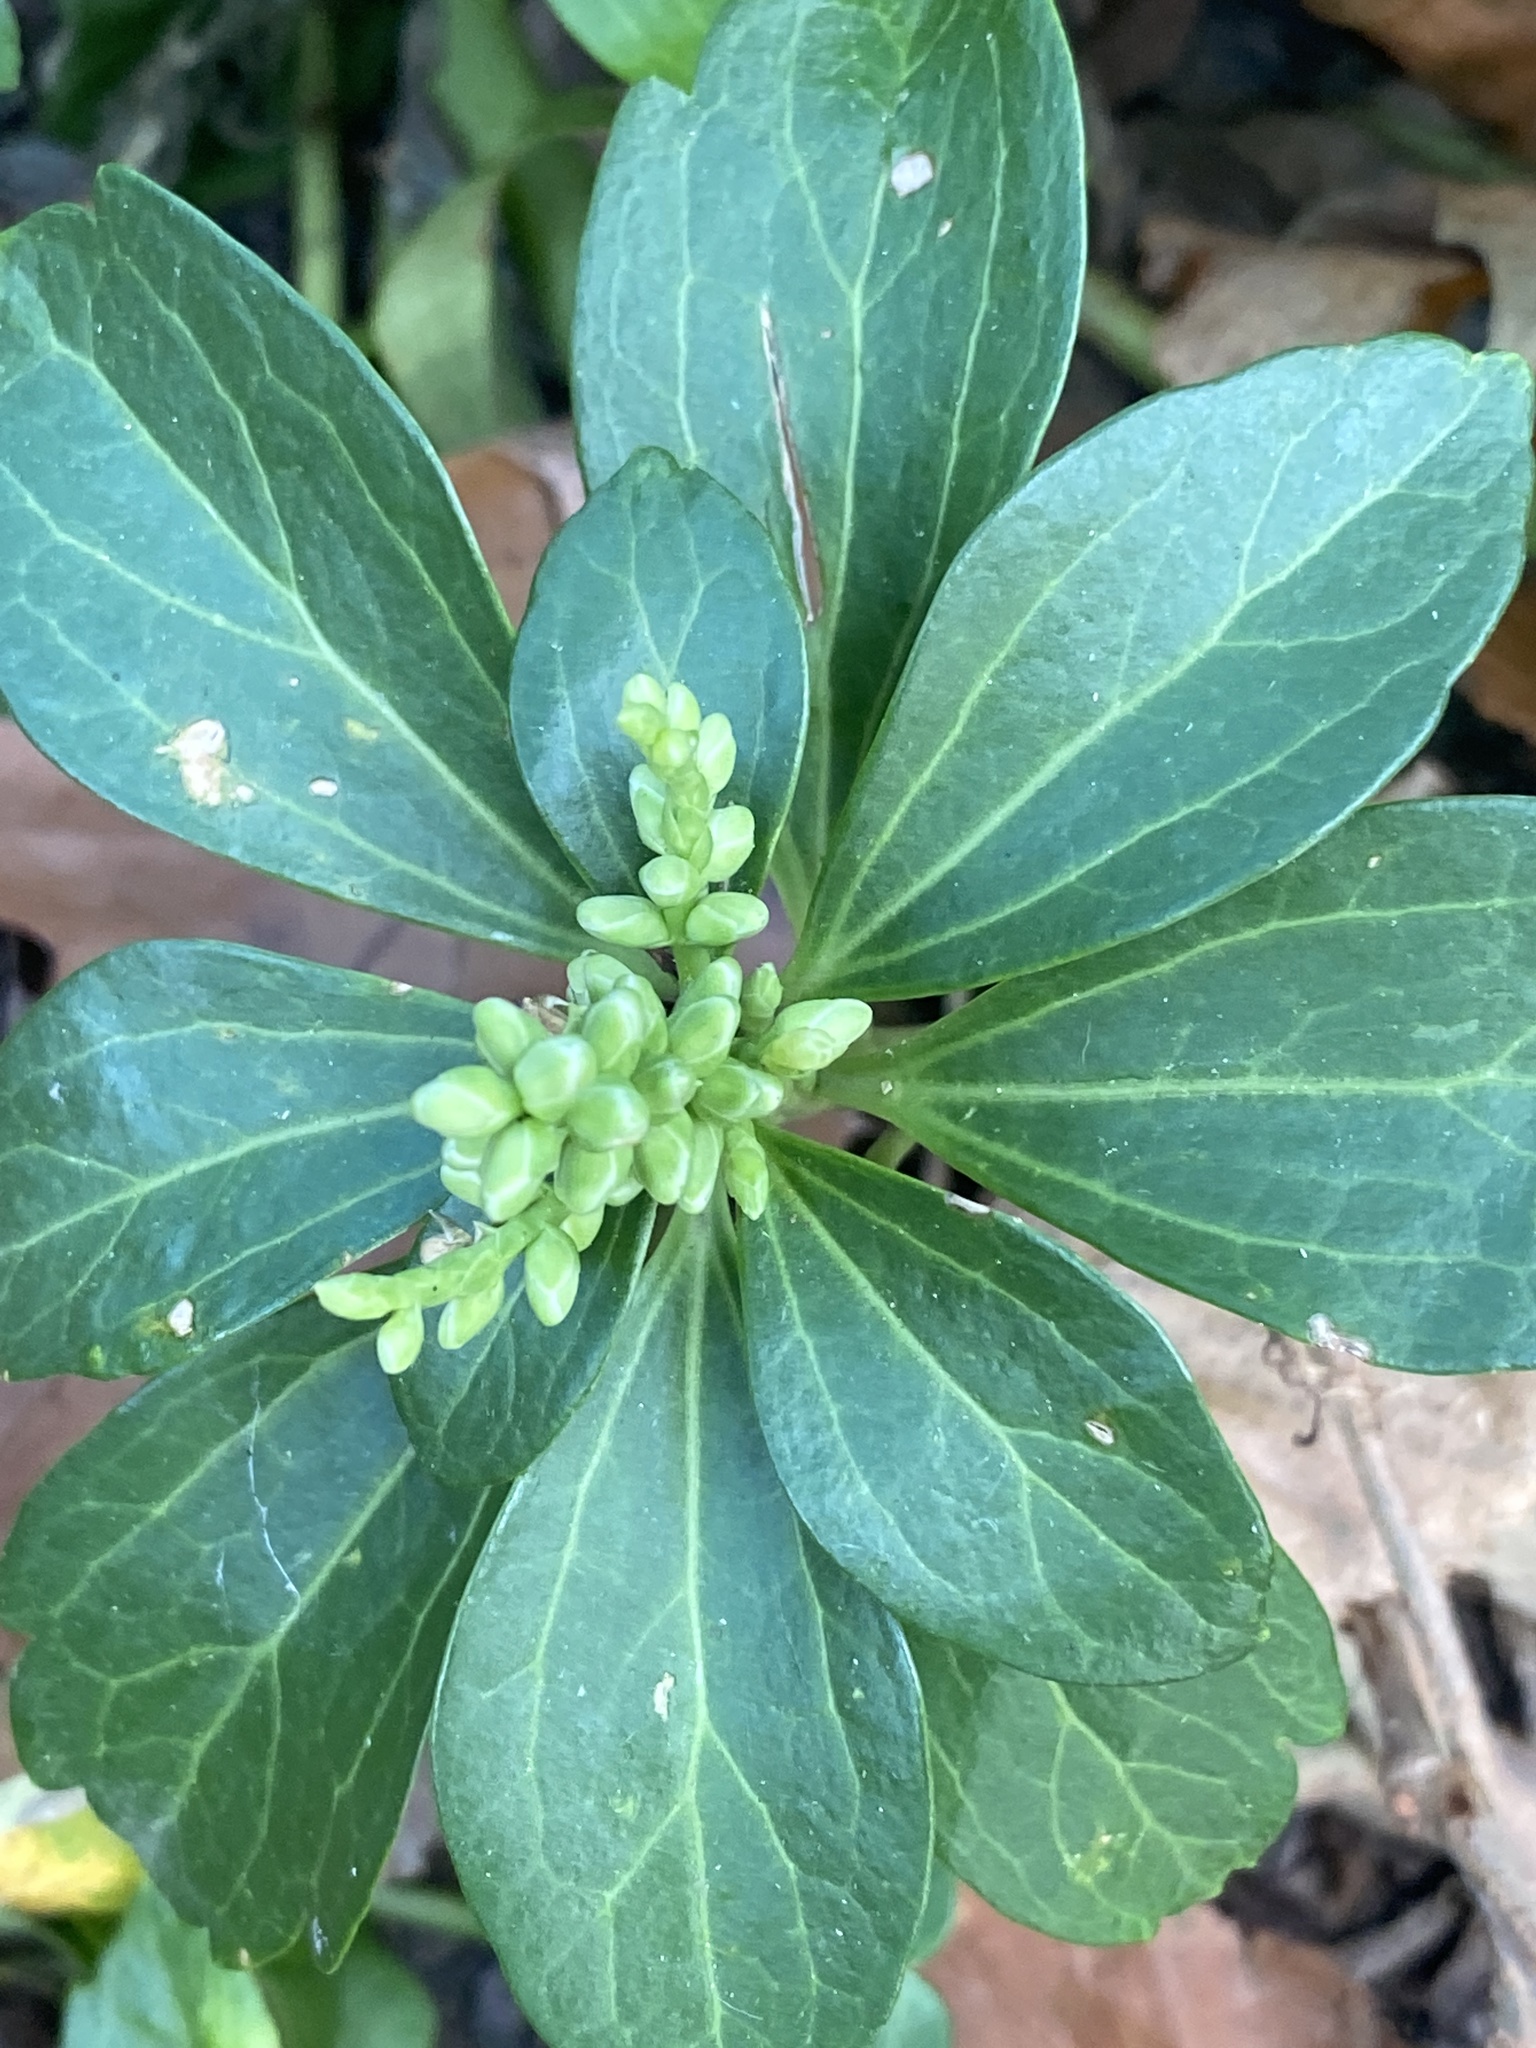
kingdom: Plantae
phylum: Tracheophyta
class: Magnoliopsida
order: Buxales
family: Buxaceae
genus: Pachysandra
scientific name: Pachysandra terminalis
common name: Japanese pachysandra
